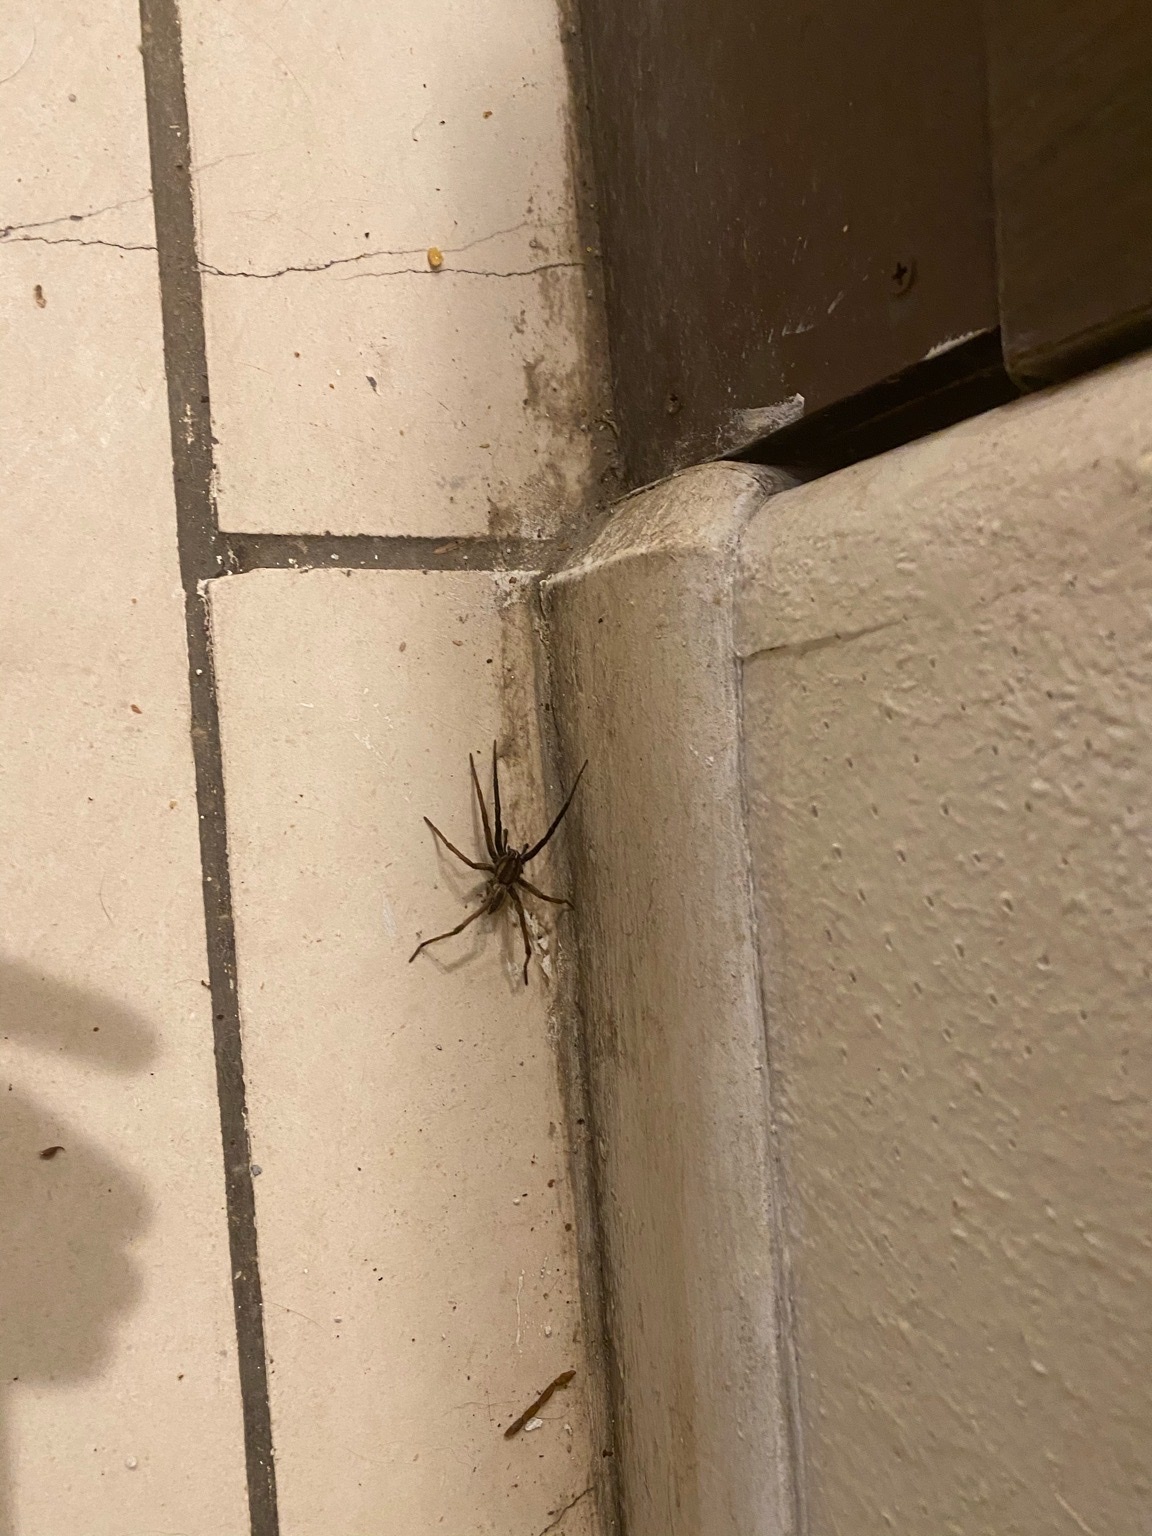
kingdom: Animalia
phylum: Arthropoda
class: Arachnida
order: Araneae
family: Lycosidae
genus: Rabidosa
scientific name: Rabidosa rabida
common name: Rabid wolf spider
